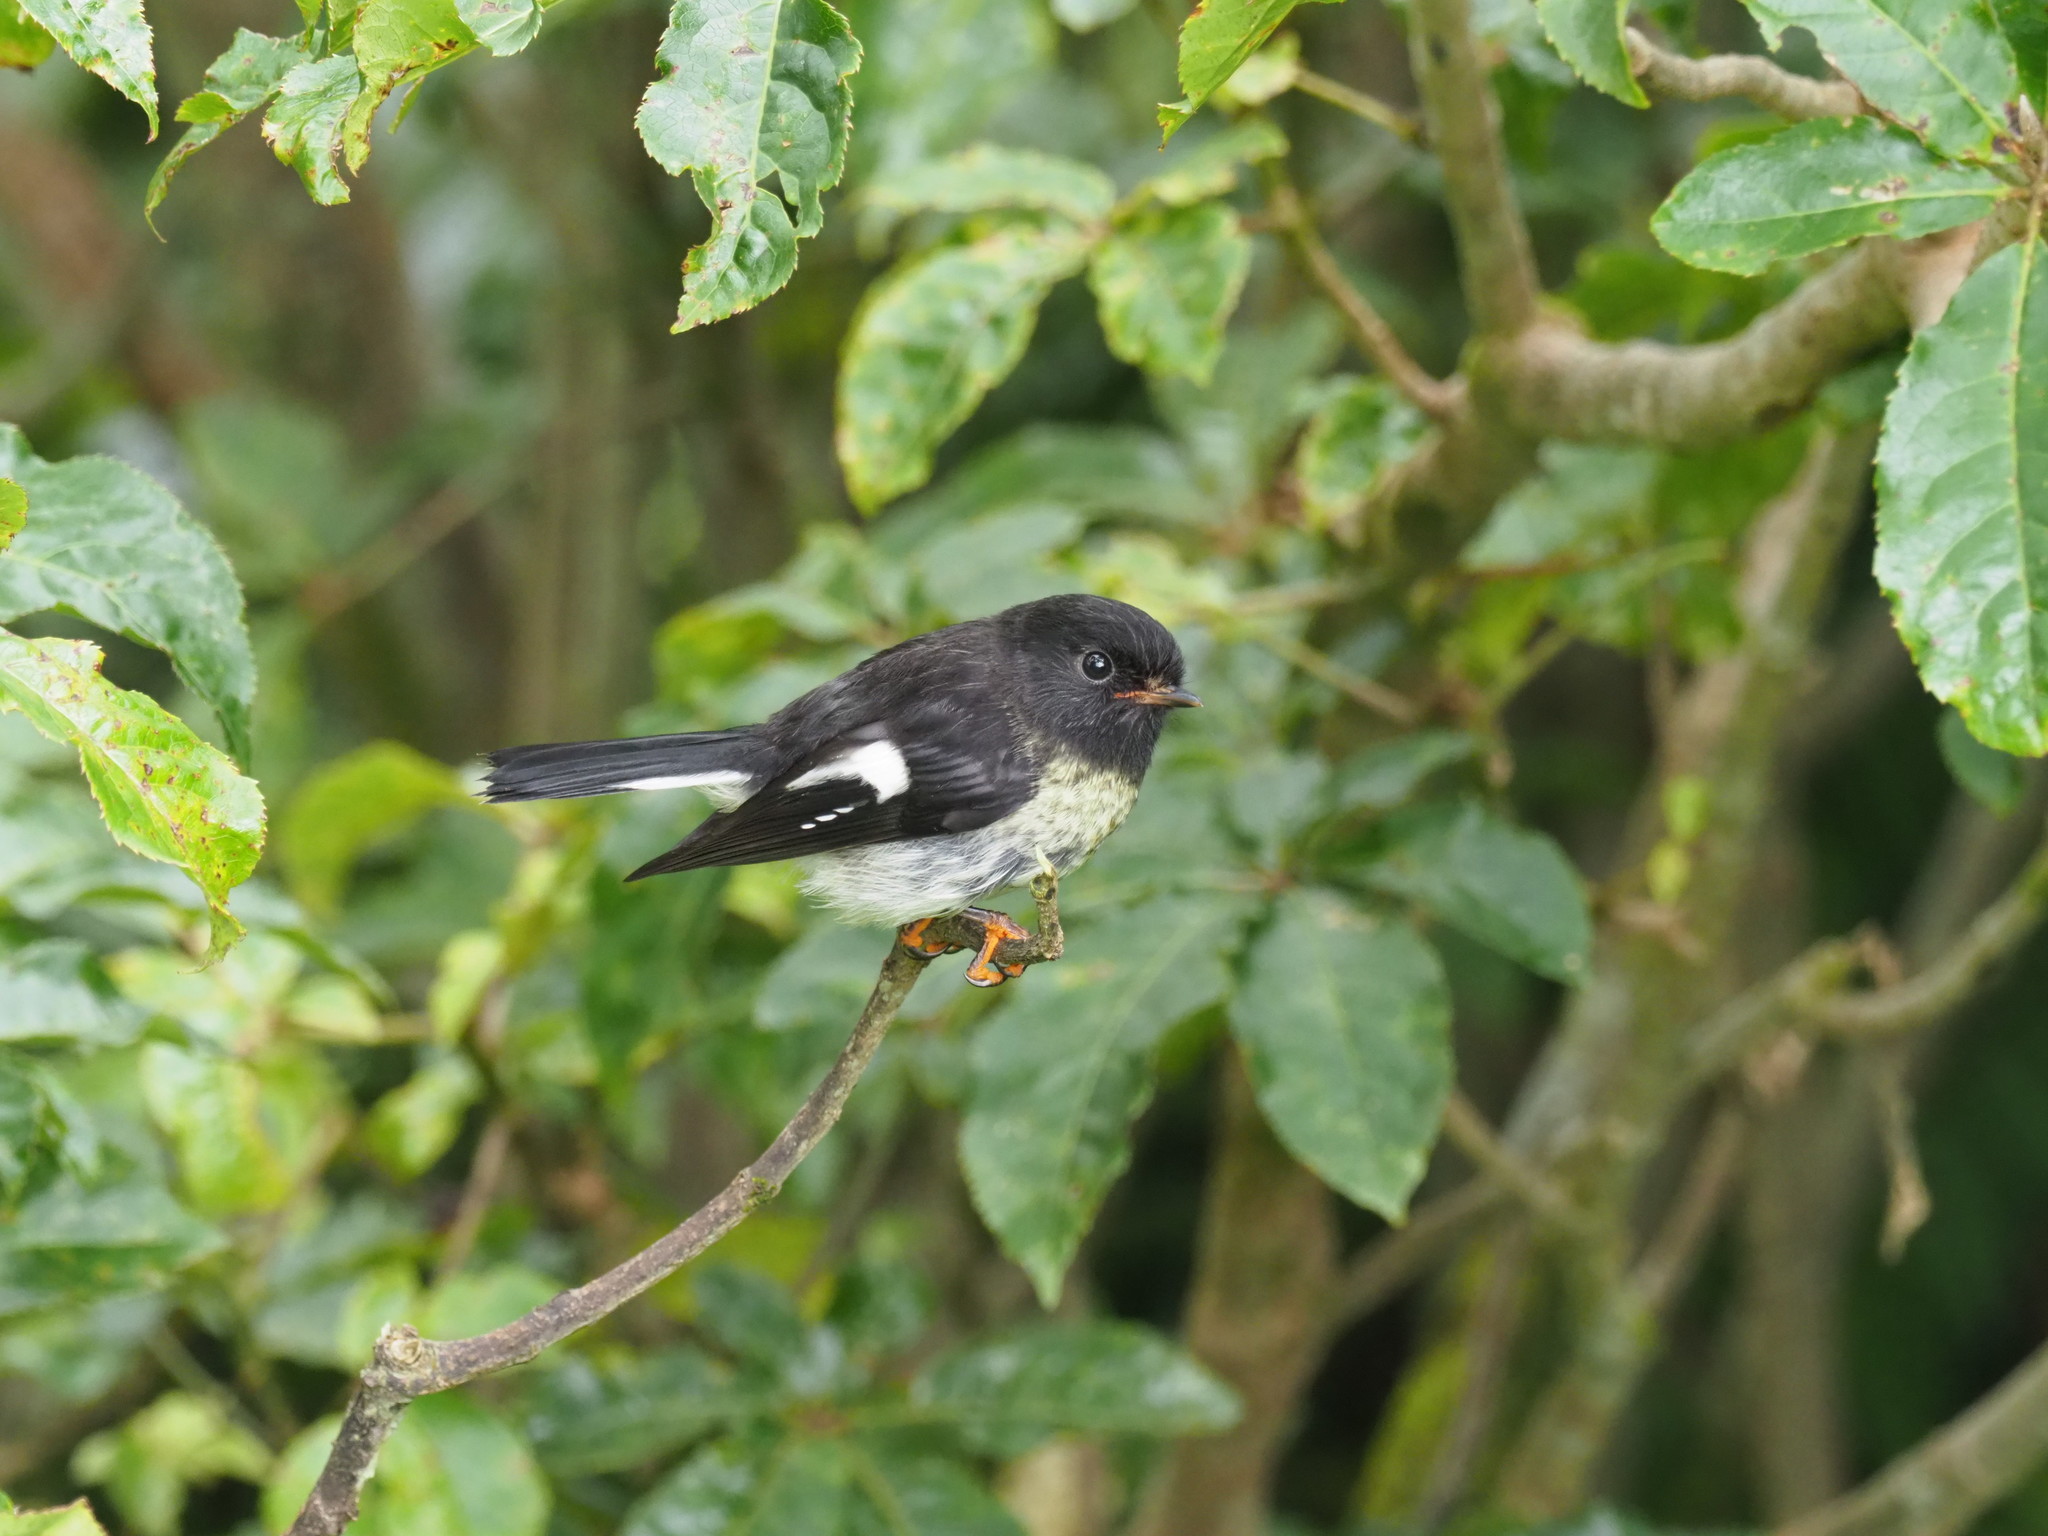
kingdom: Animalia
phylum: Chordata
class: Aves
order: Passeriformes
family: Petroicidae
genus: Petroica
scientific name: Petroica macrocephala
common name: Tomtit
